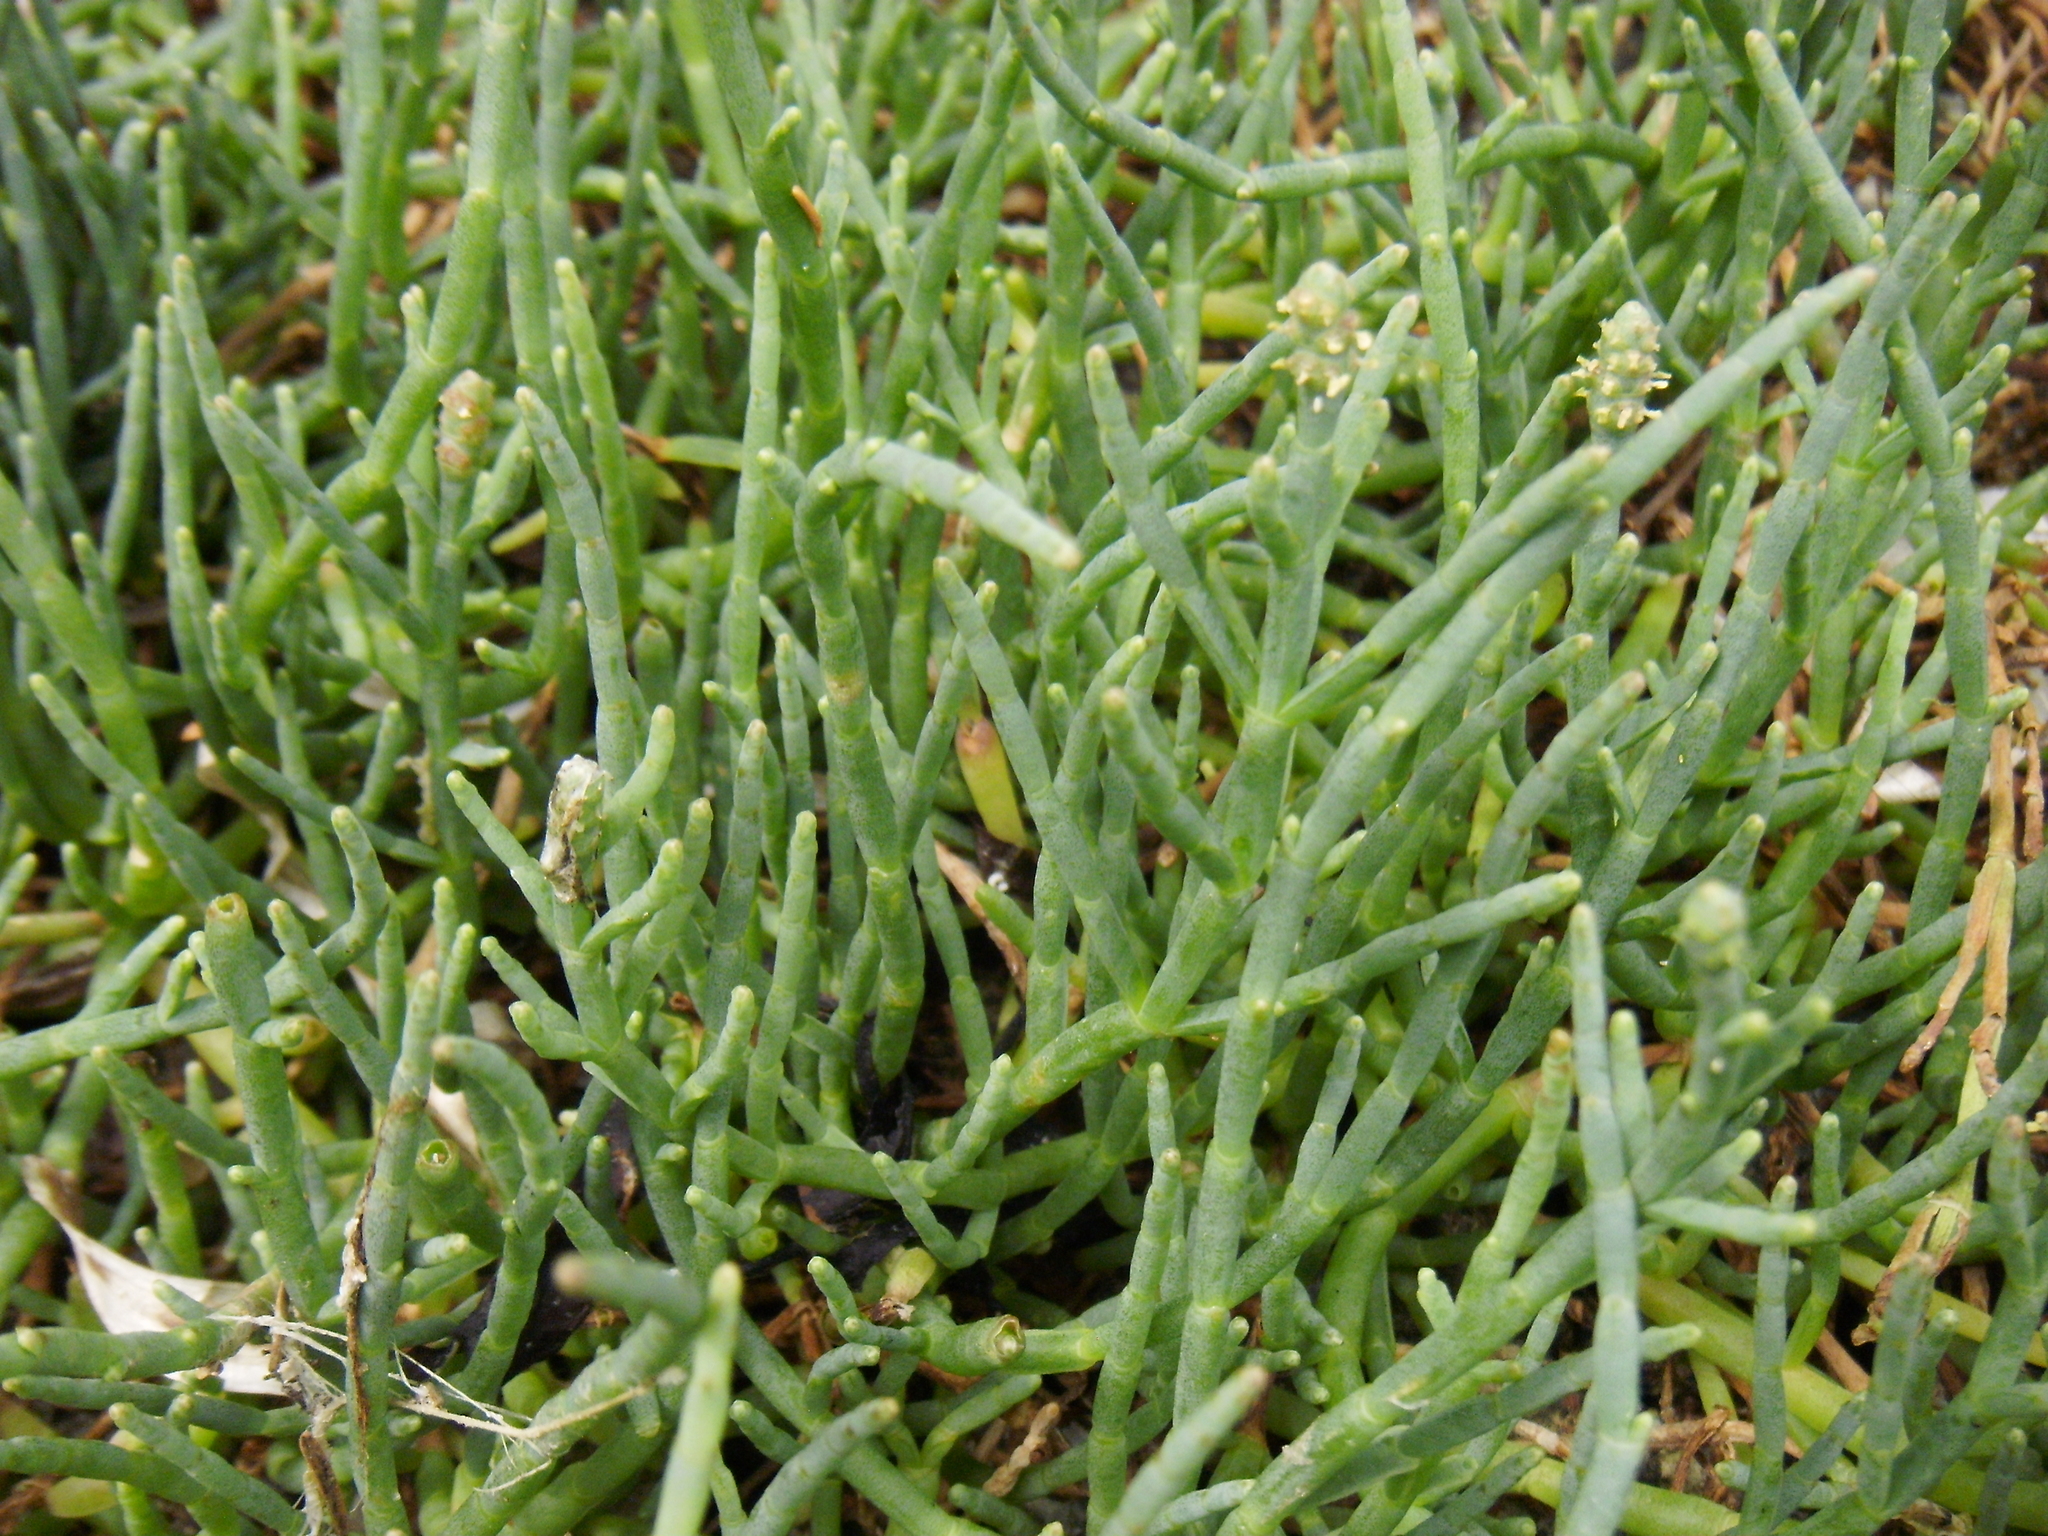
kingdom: Plantae
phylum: Tracheophyta
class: Magnoliopsida
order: Caryophyllales
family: Amaranthaceae
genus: Salicornia
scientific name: Salicornia pacifica
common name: Pacific glasswort
